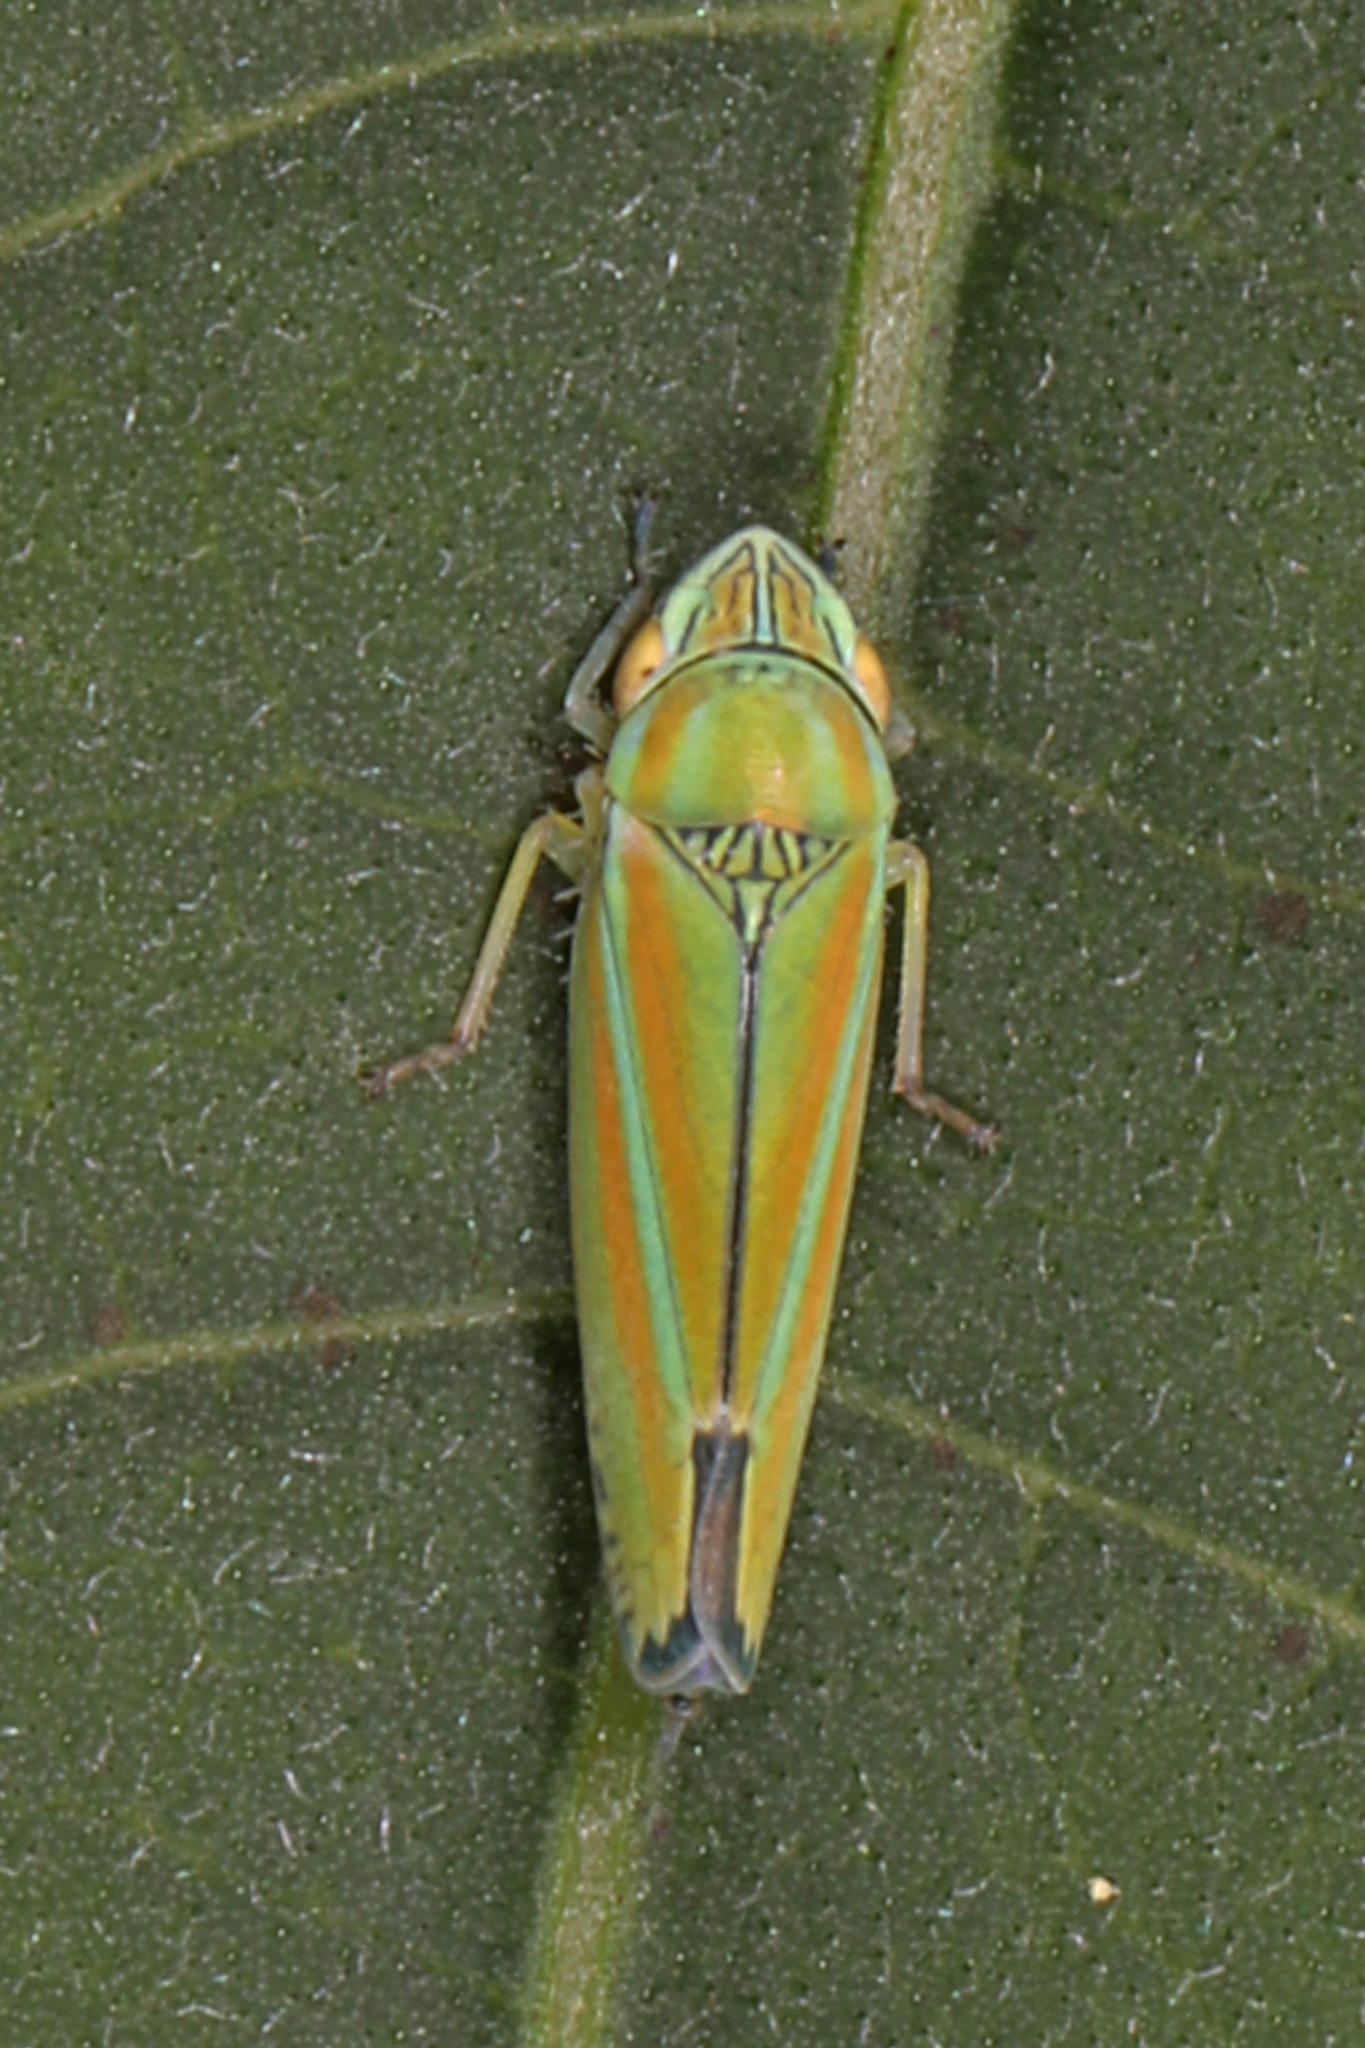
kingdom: Animalia
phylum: Arthropoda
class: Insecta
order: Hemiptera
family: Cicadellidae
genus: Graphocephala
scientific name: Graphocephala versuta
